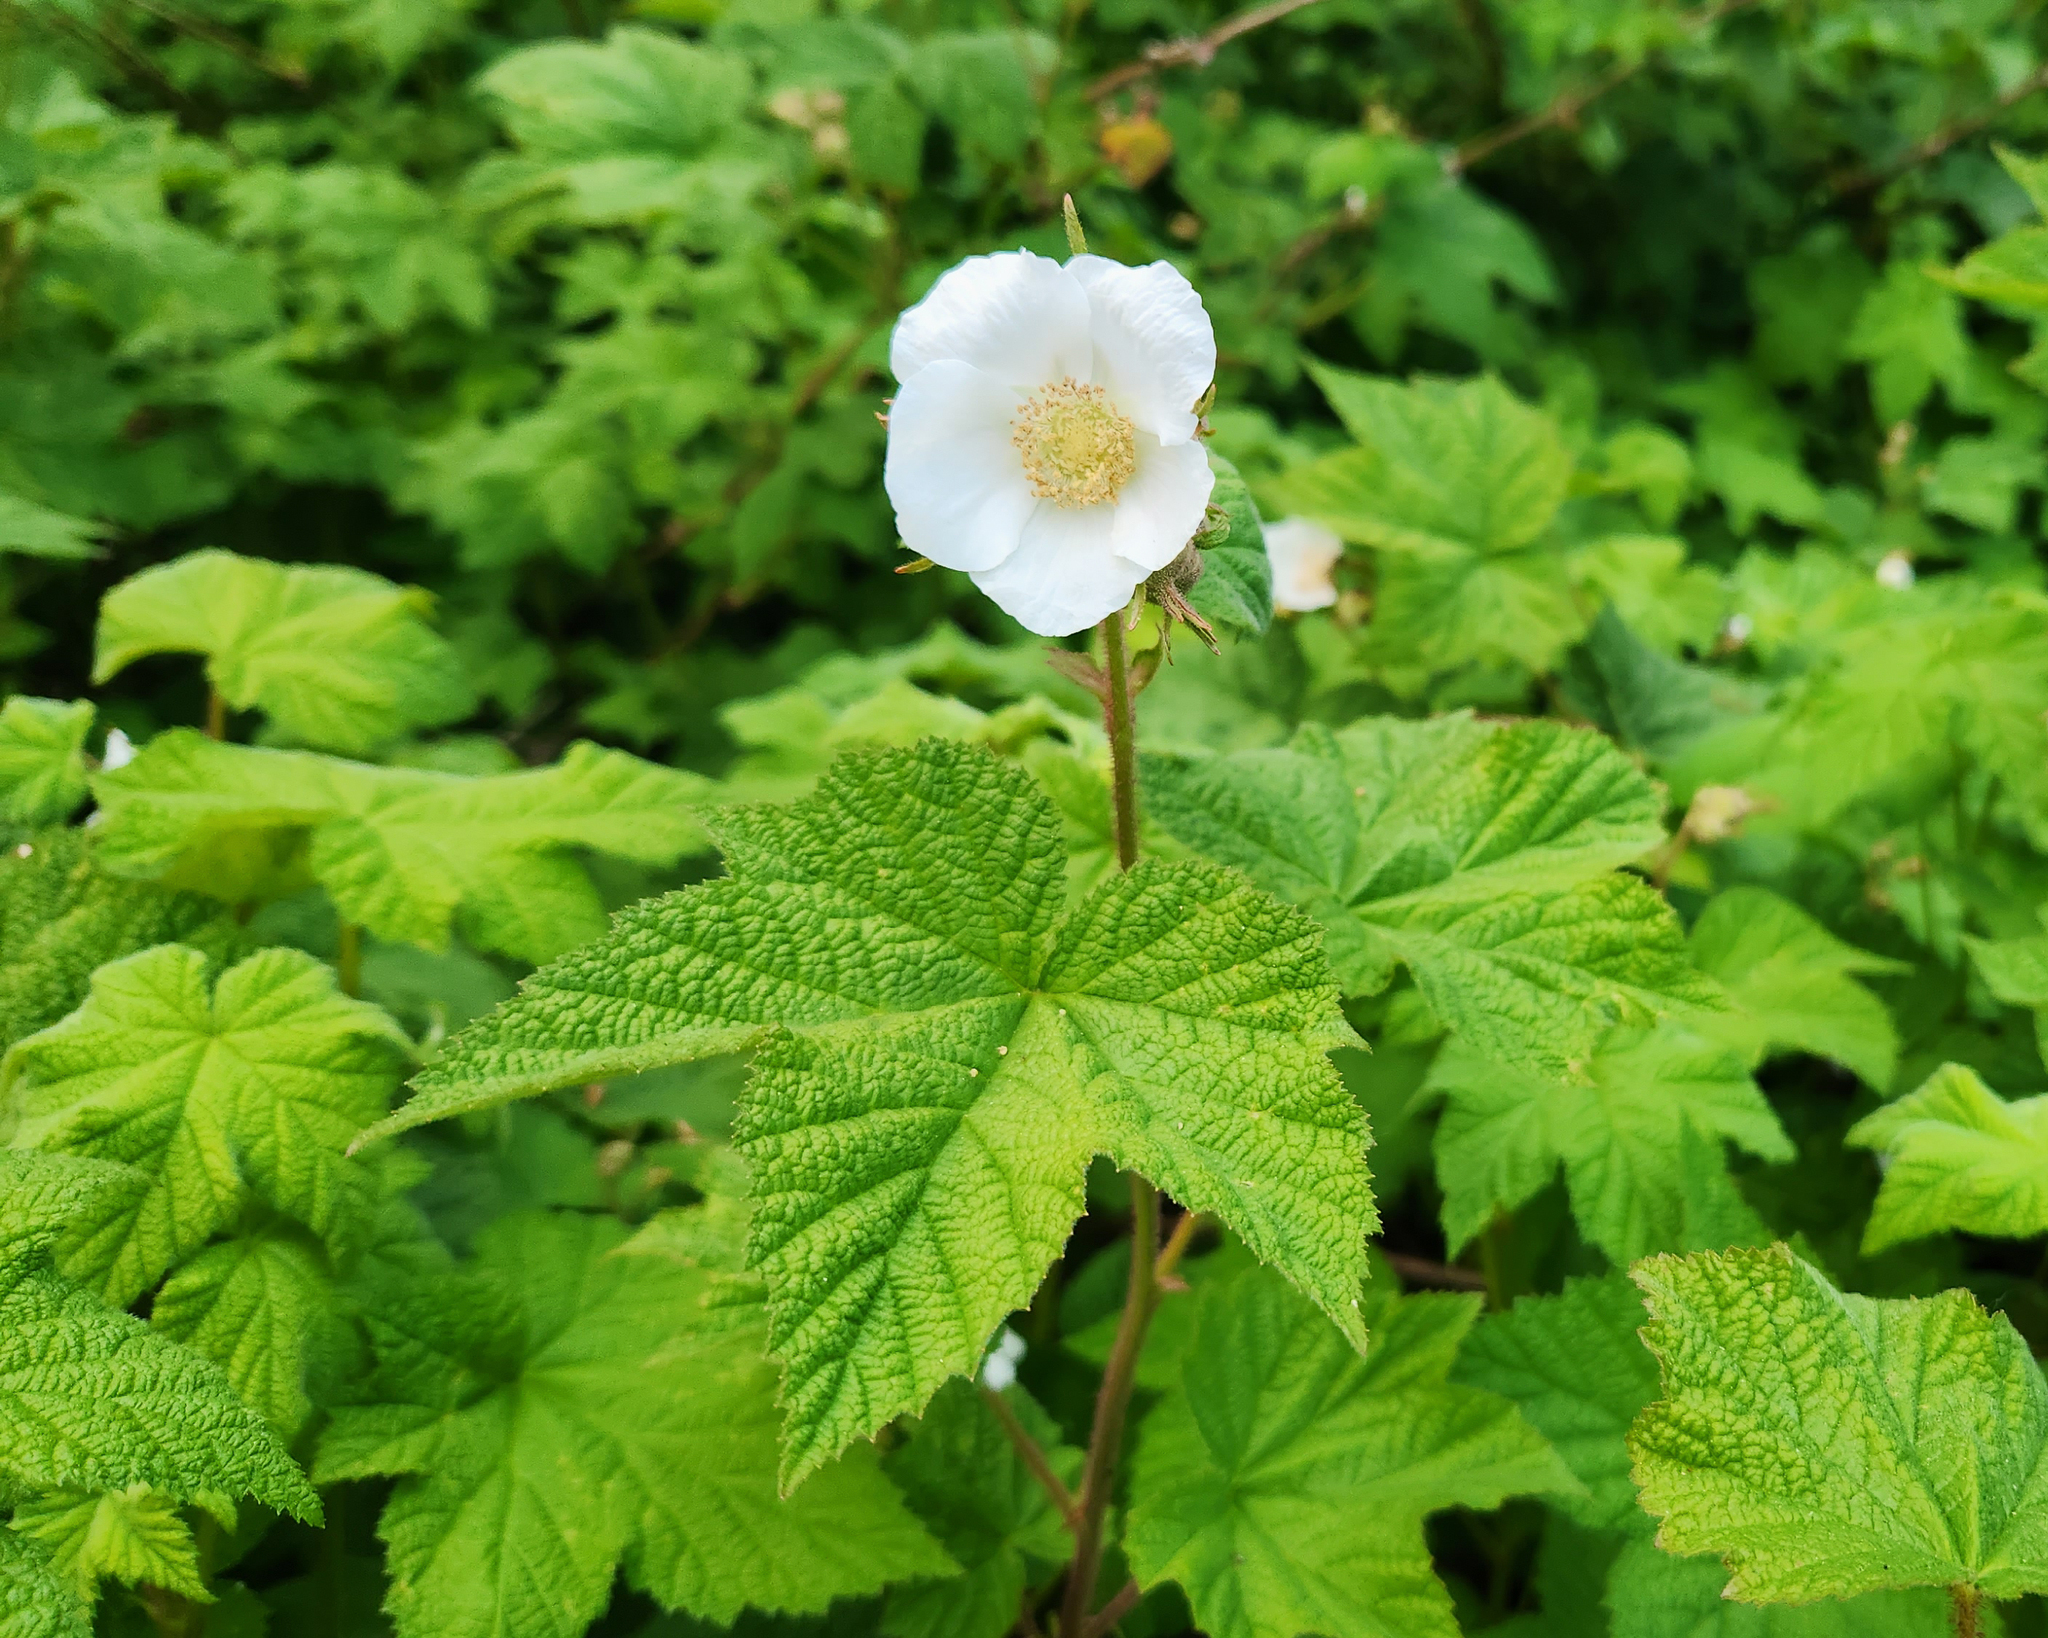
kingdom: Plantae
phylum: Tracheophyta
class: Magnoliopsida
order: Rosales
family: Rosaceae
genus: Rubus
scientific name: Rubus parviflorus
